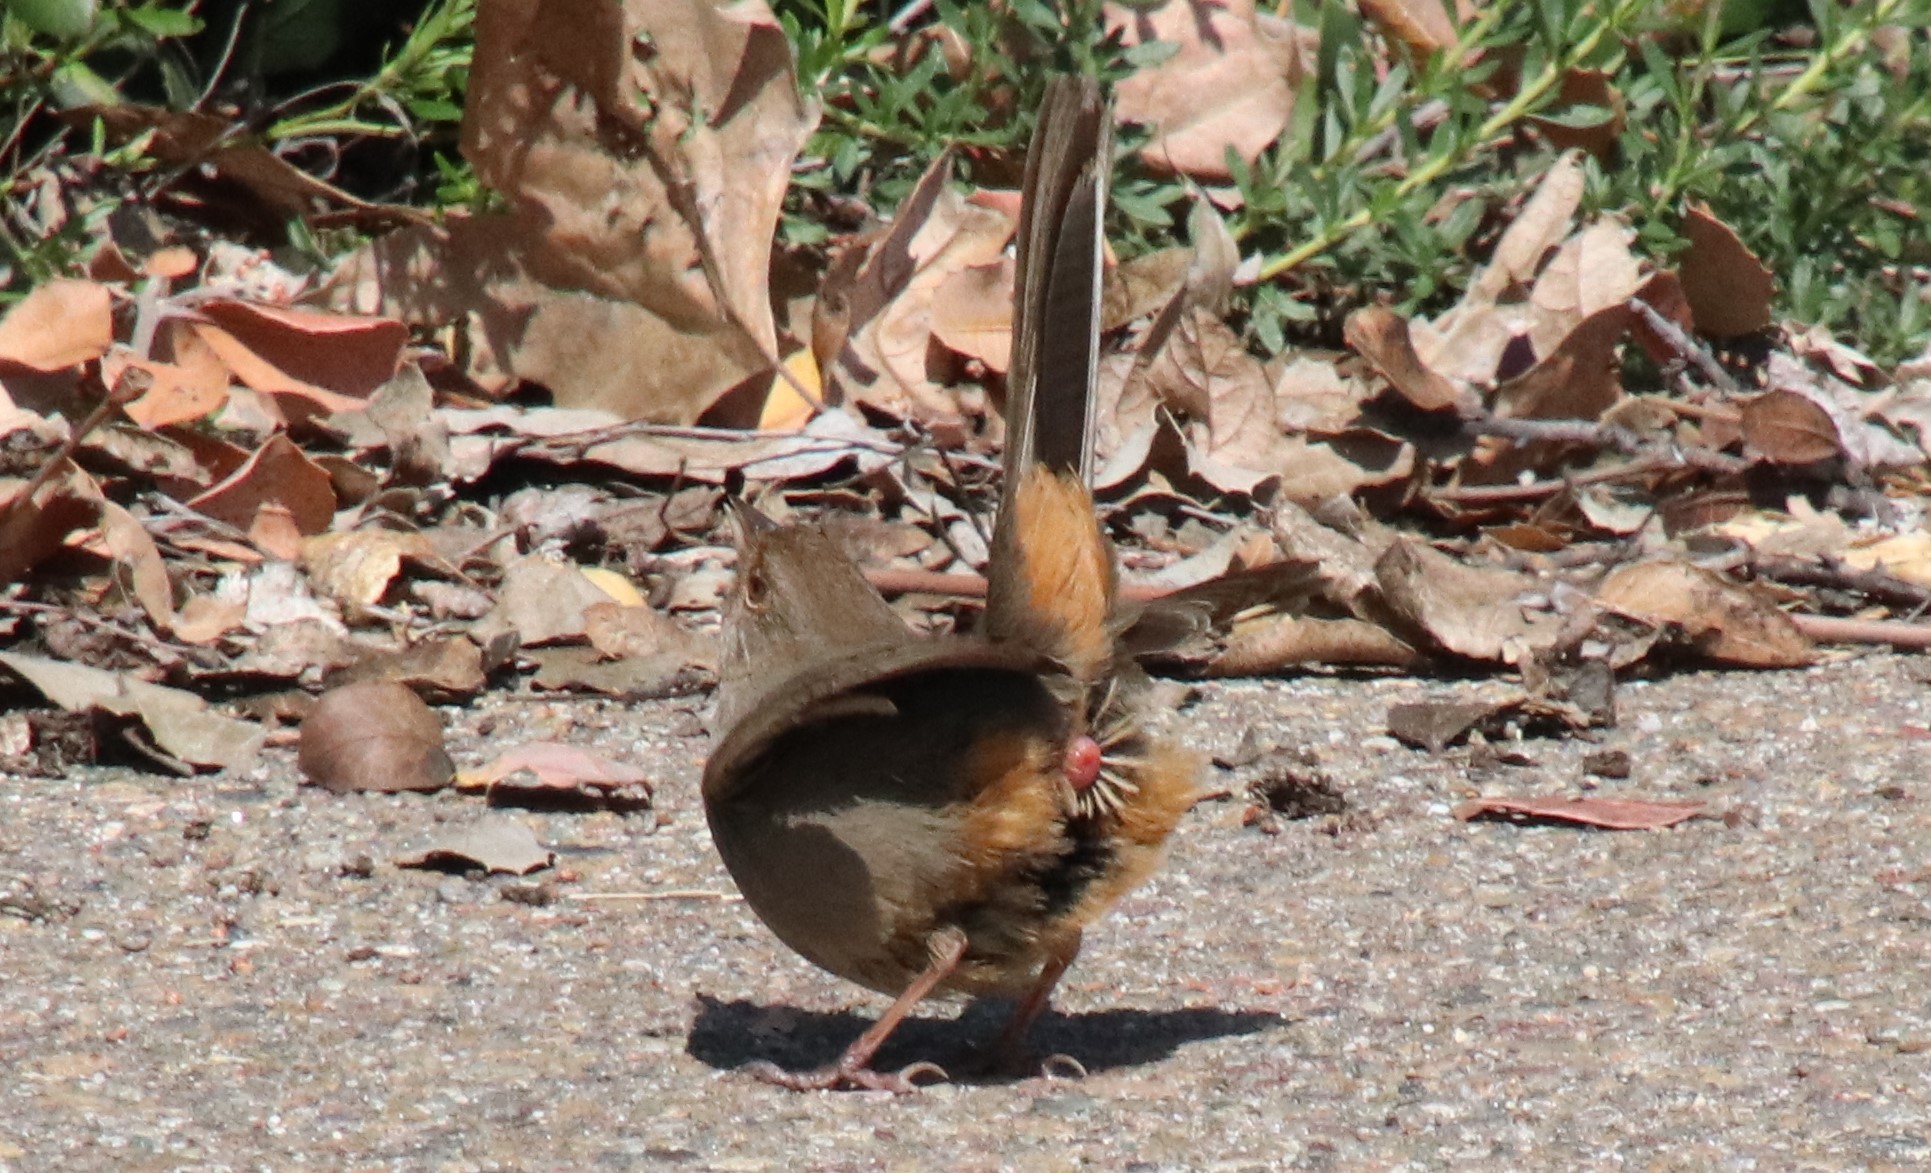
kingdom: Animalia
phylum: Chordata
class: Aves
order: Passeriformes
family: Passerellidae
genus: Melozone
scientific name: Melozone crissalis
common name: California towhee
